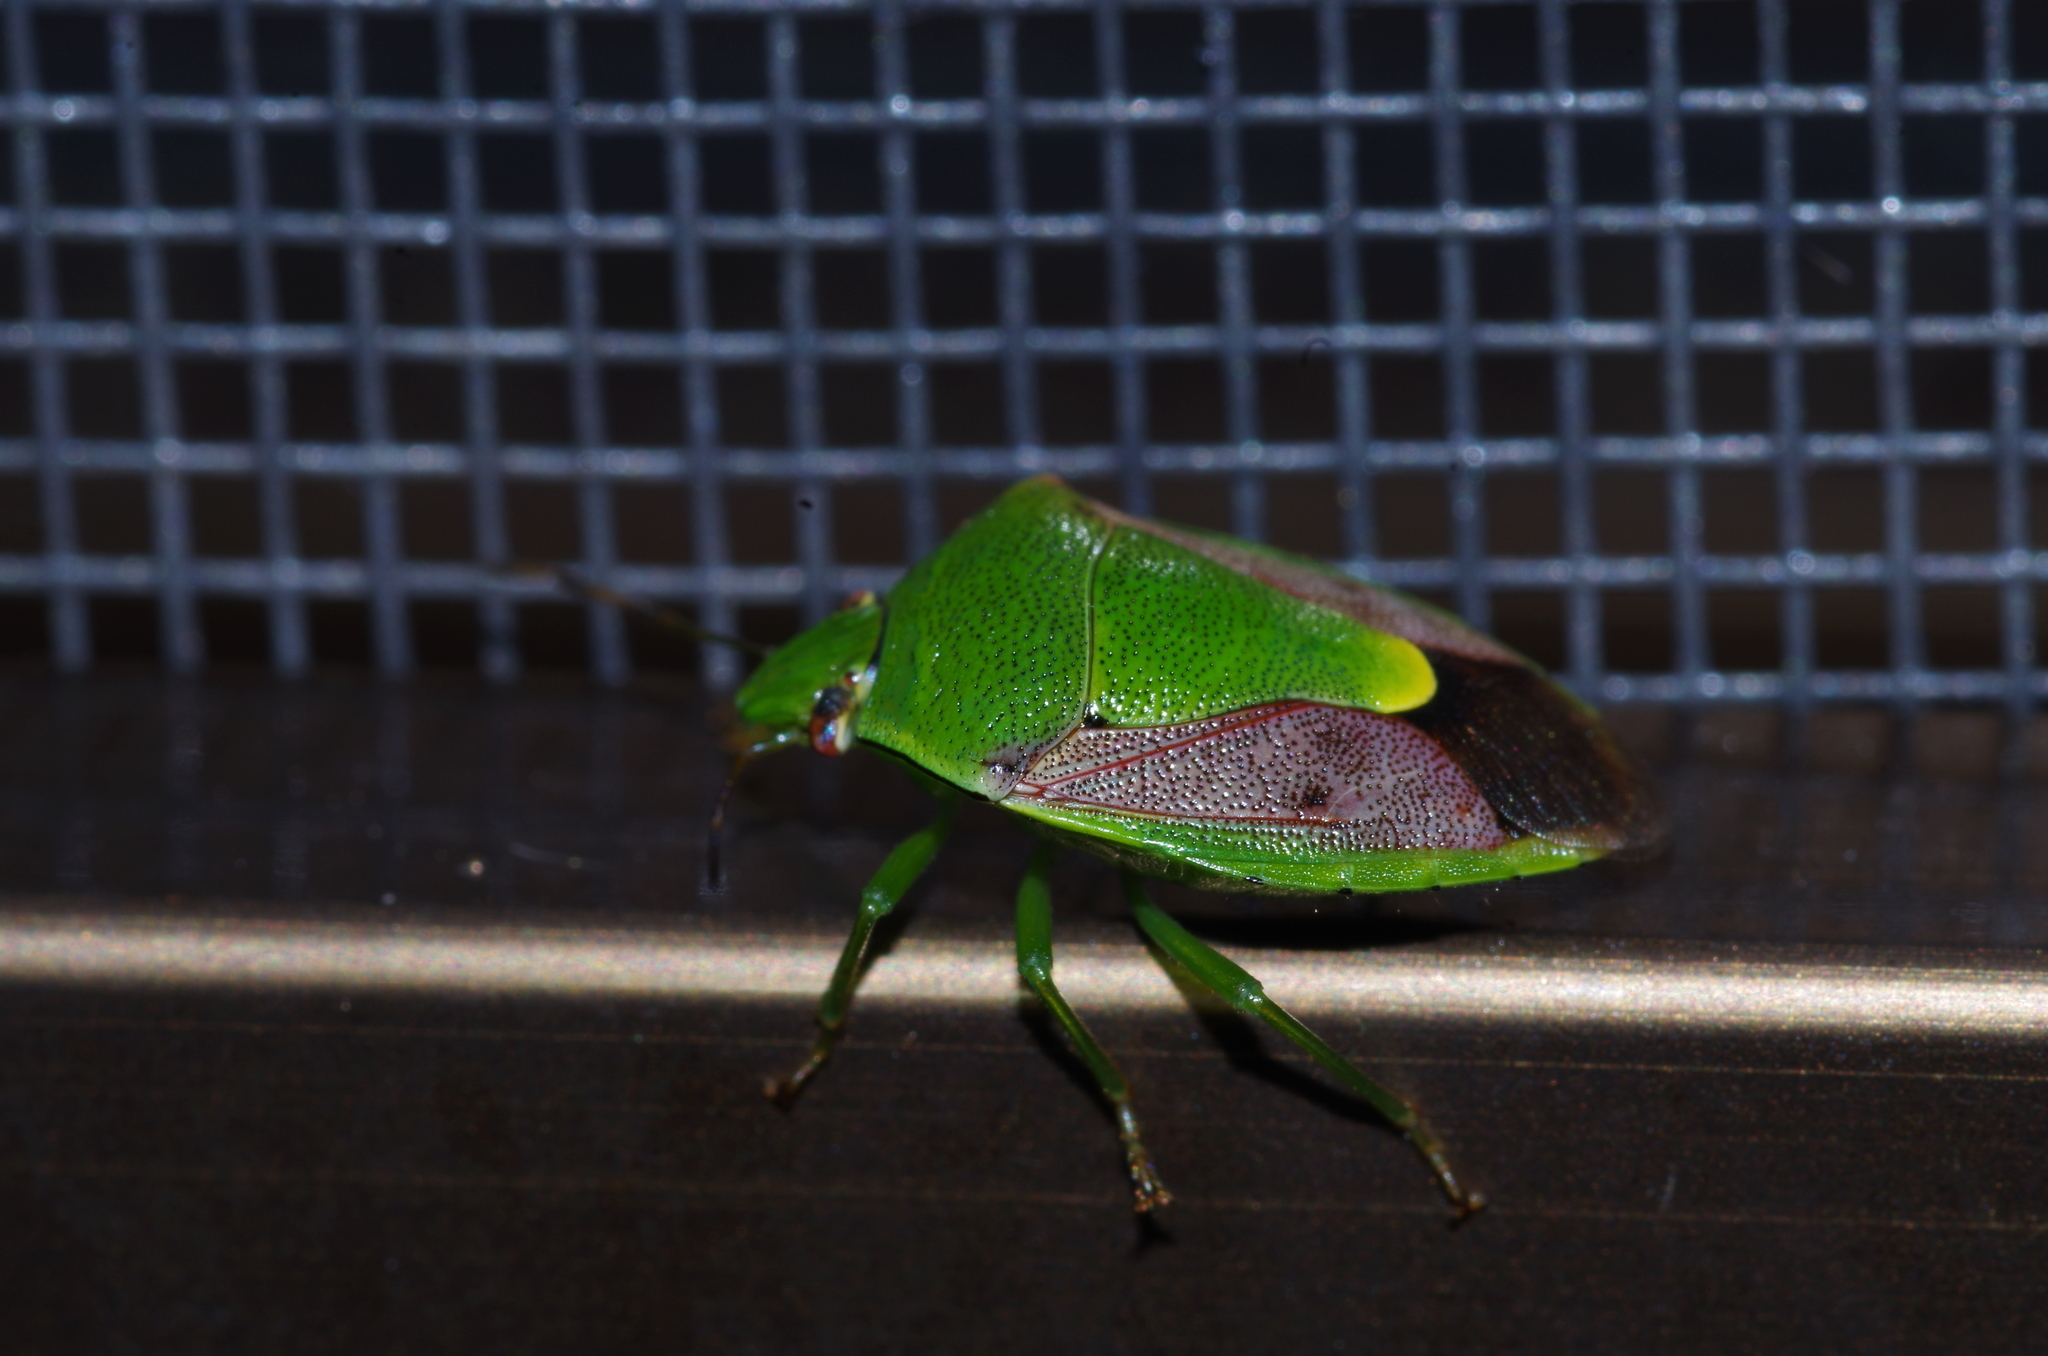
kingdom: Animalia
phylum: Arthropoda
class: Insecta
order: Hemiptera
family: Pentatomidae
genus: Plautia
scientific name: Plautia stali
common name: Stink bug
